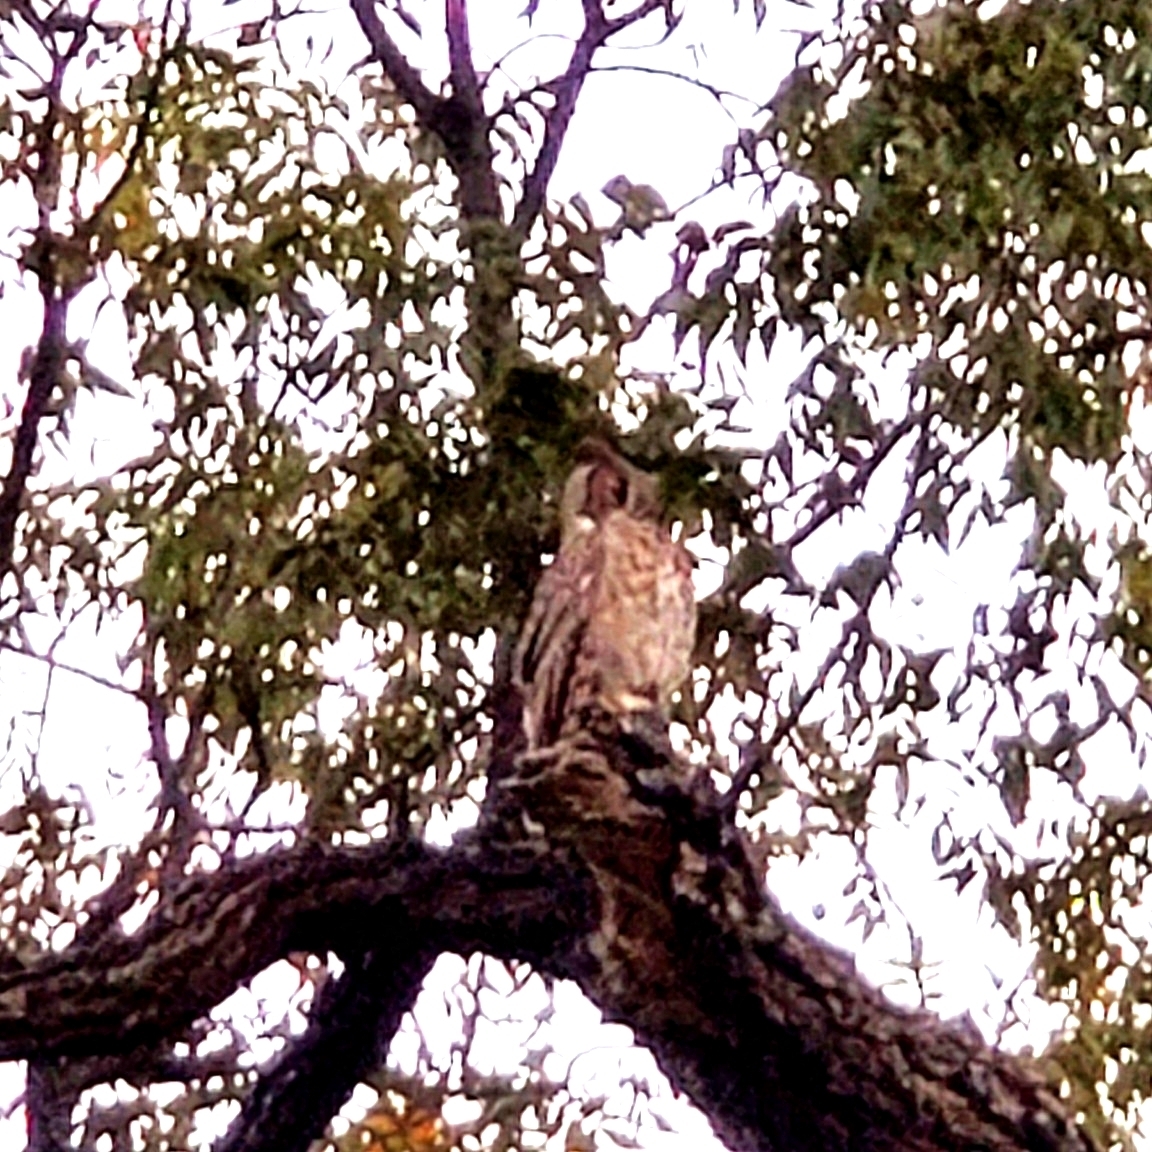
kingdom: Animalia
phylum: Chordata
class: Aves
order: Strigiformes
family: Strigidae
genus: Bubo
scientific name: Bubo virginianus
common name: Great horned owl
